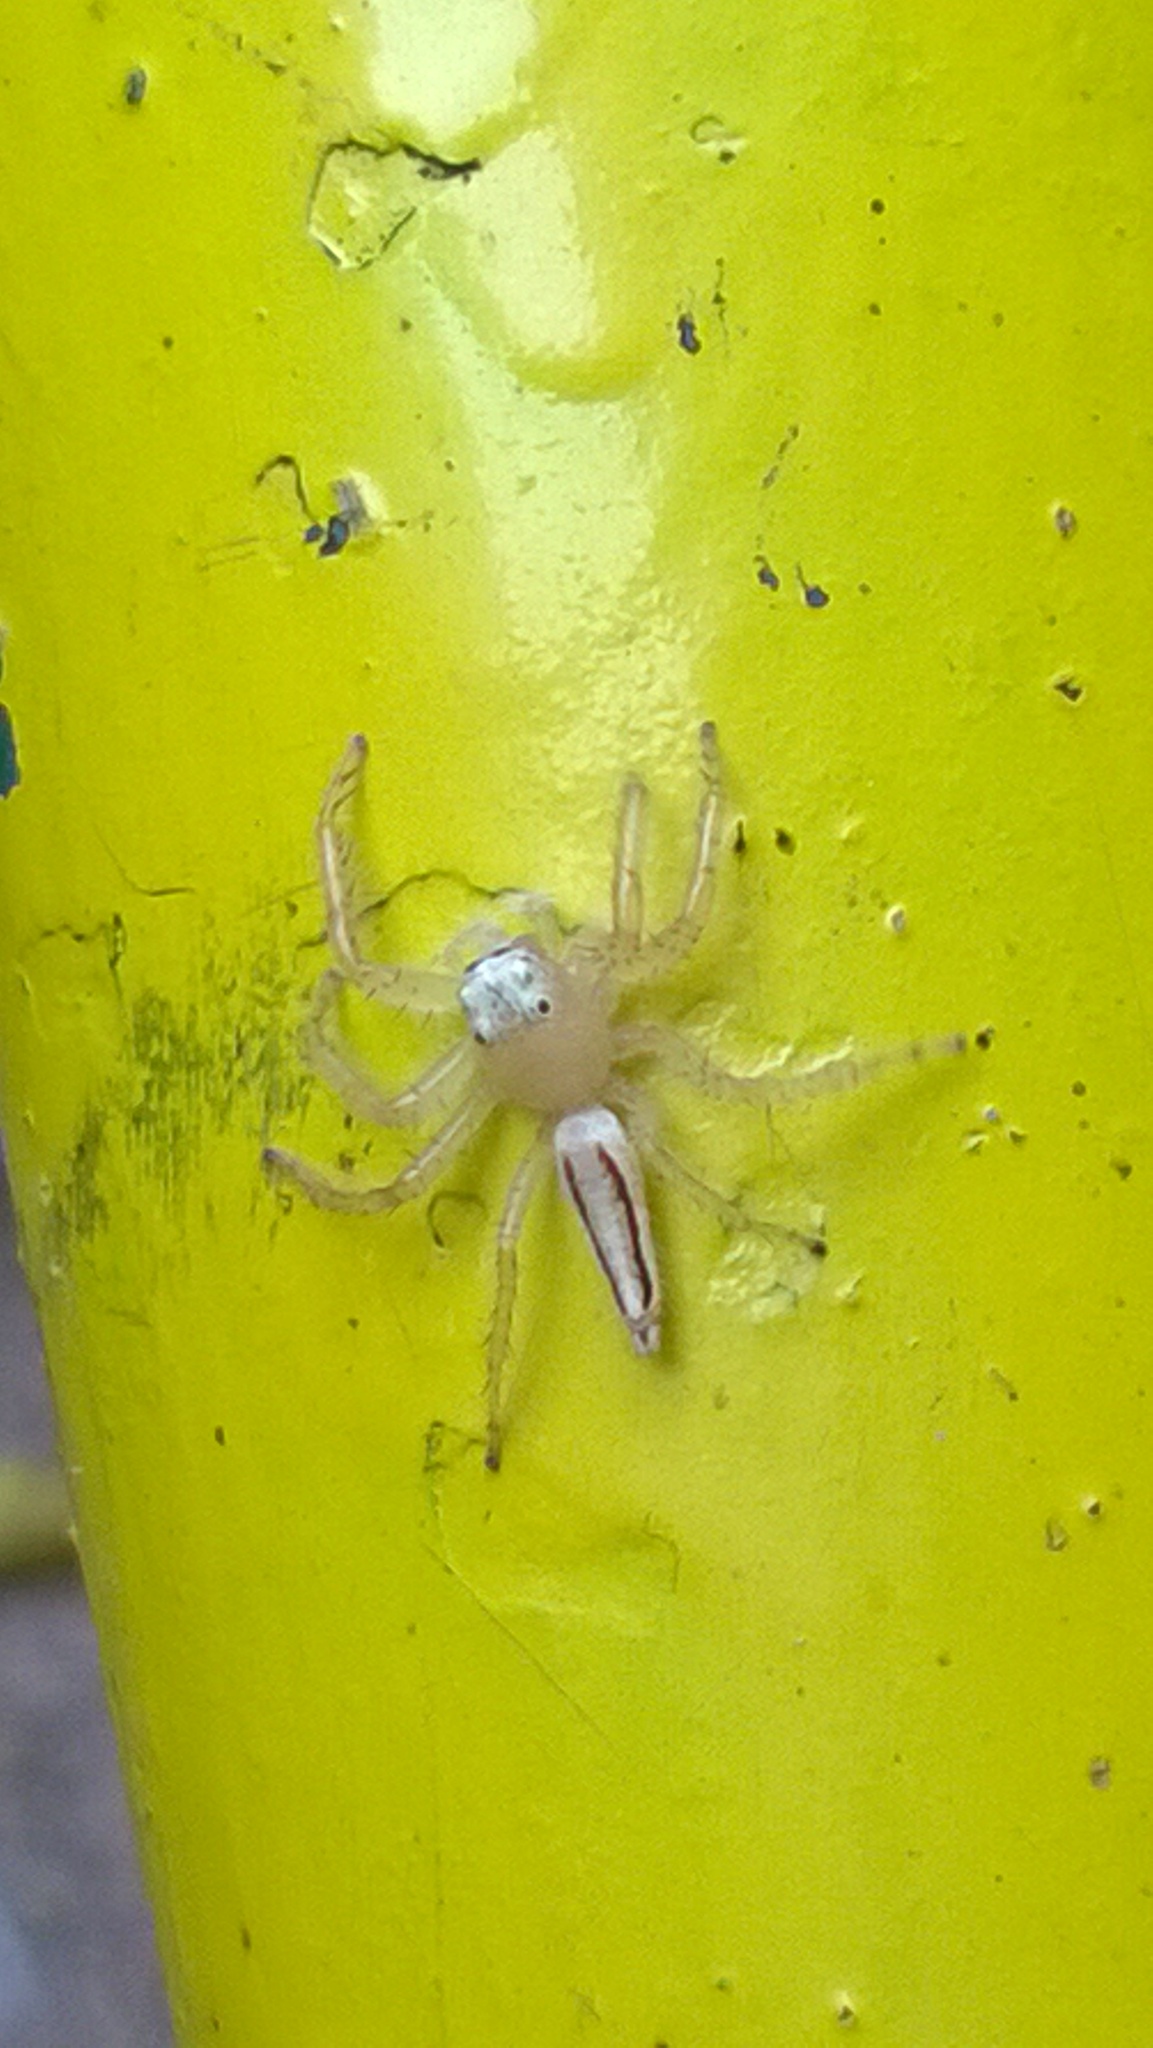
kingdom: Animalia
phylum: Arthropoda
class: Arachnida
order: Araneae
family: Salticidae
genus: Telamonia
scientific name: Telamonia dimidiata
